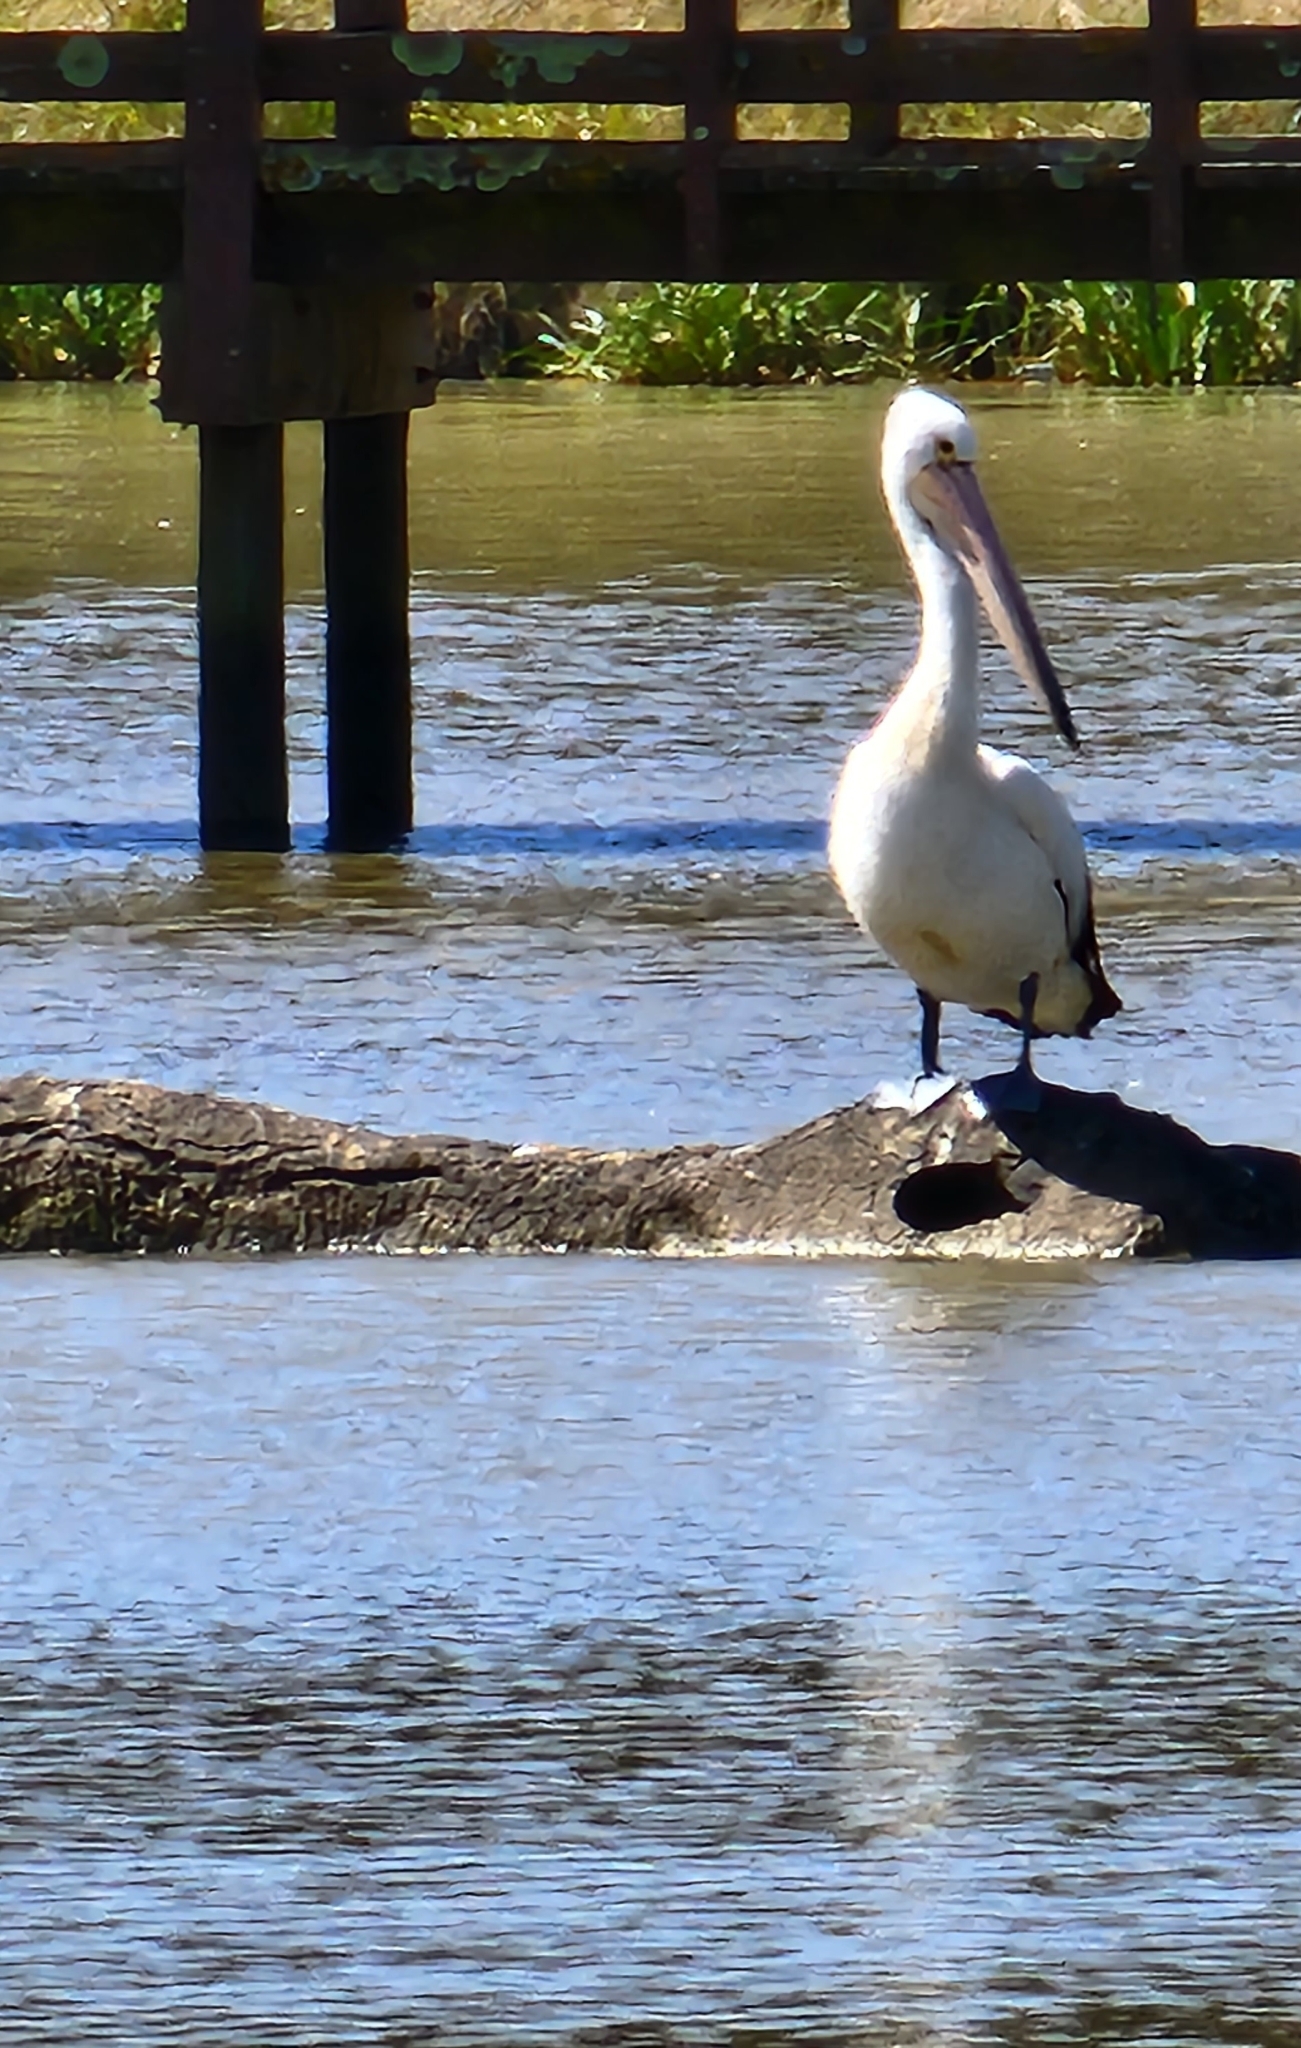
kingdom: Animalia
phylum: Chordata
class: Aves
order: Pelecaniformes
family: Pelecanidae
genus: Pelecanus
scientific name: Pelecanus conspicillatus
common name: Australian pelican
